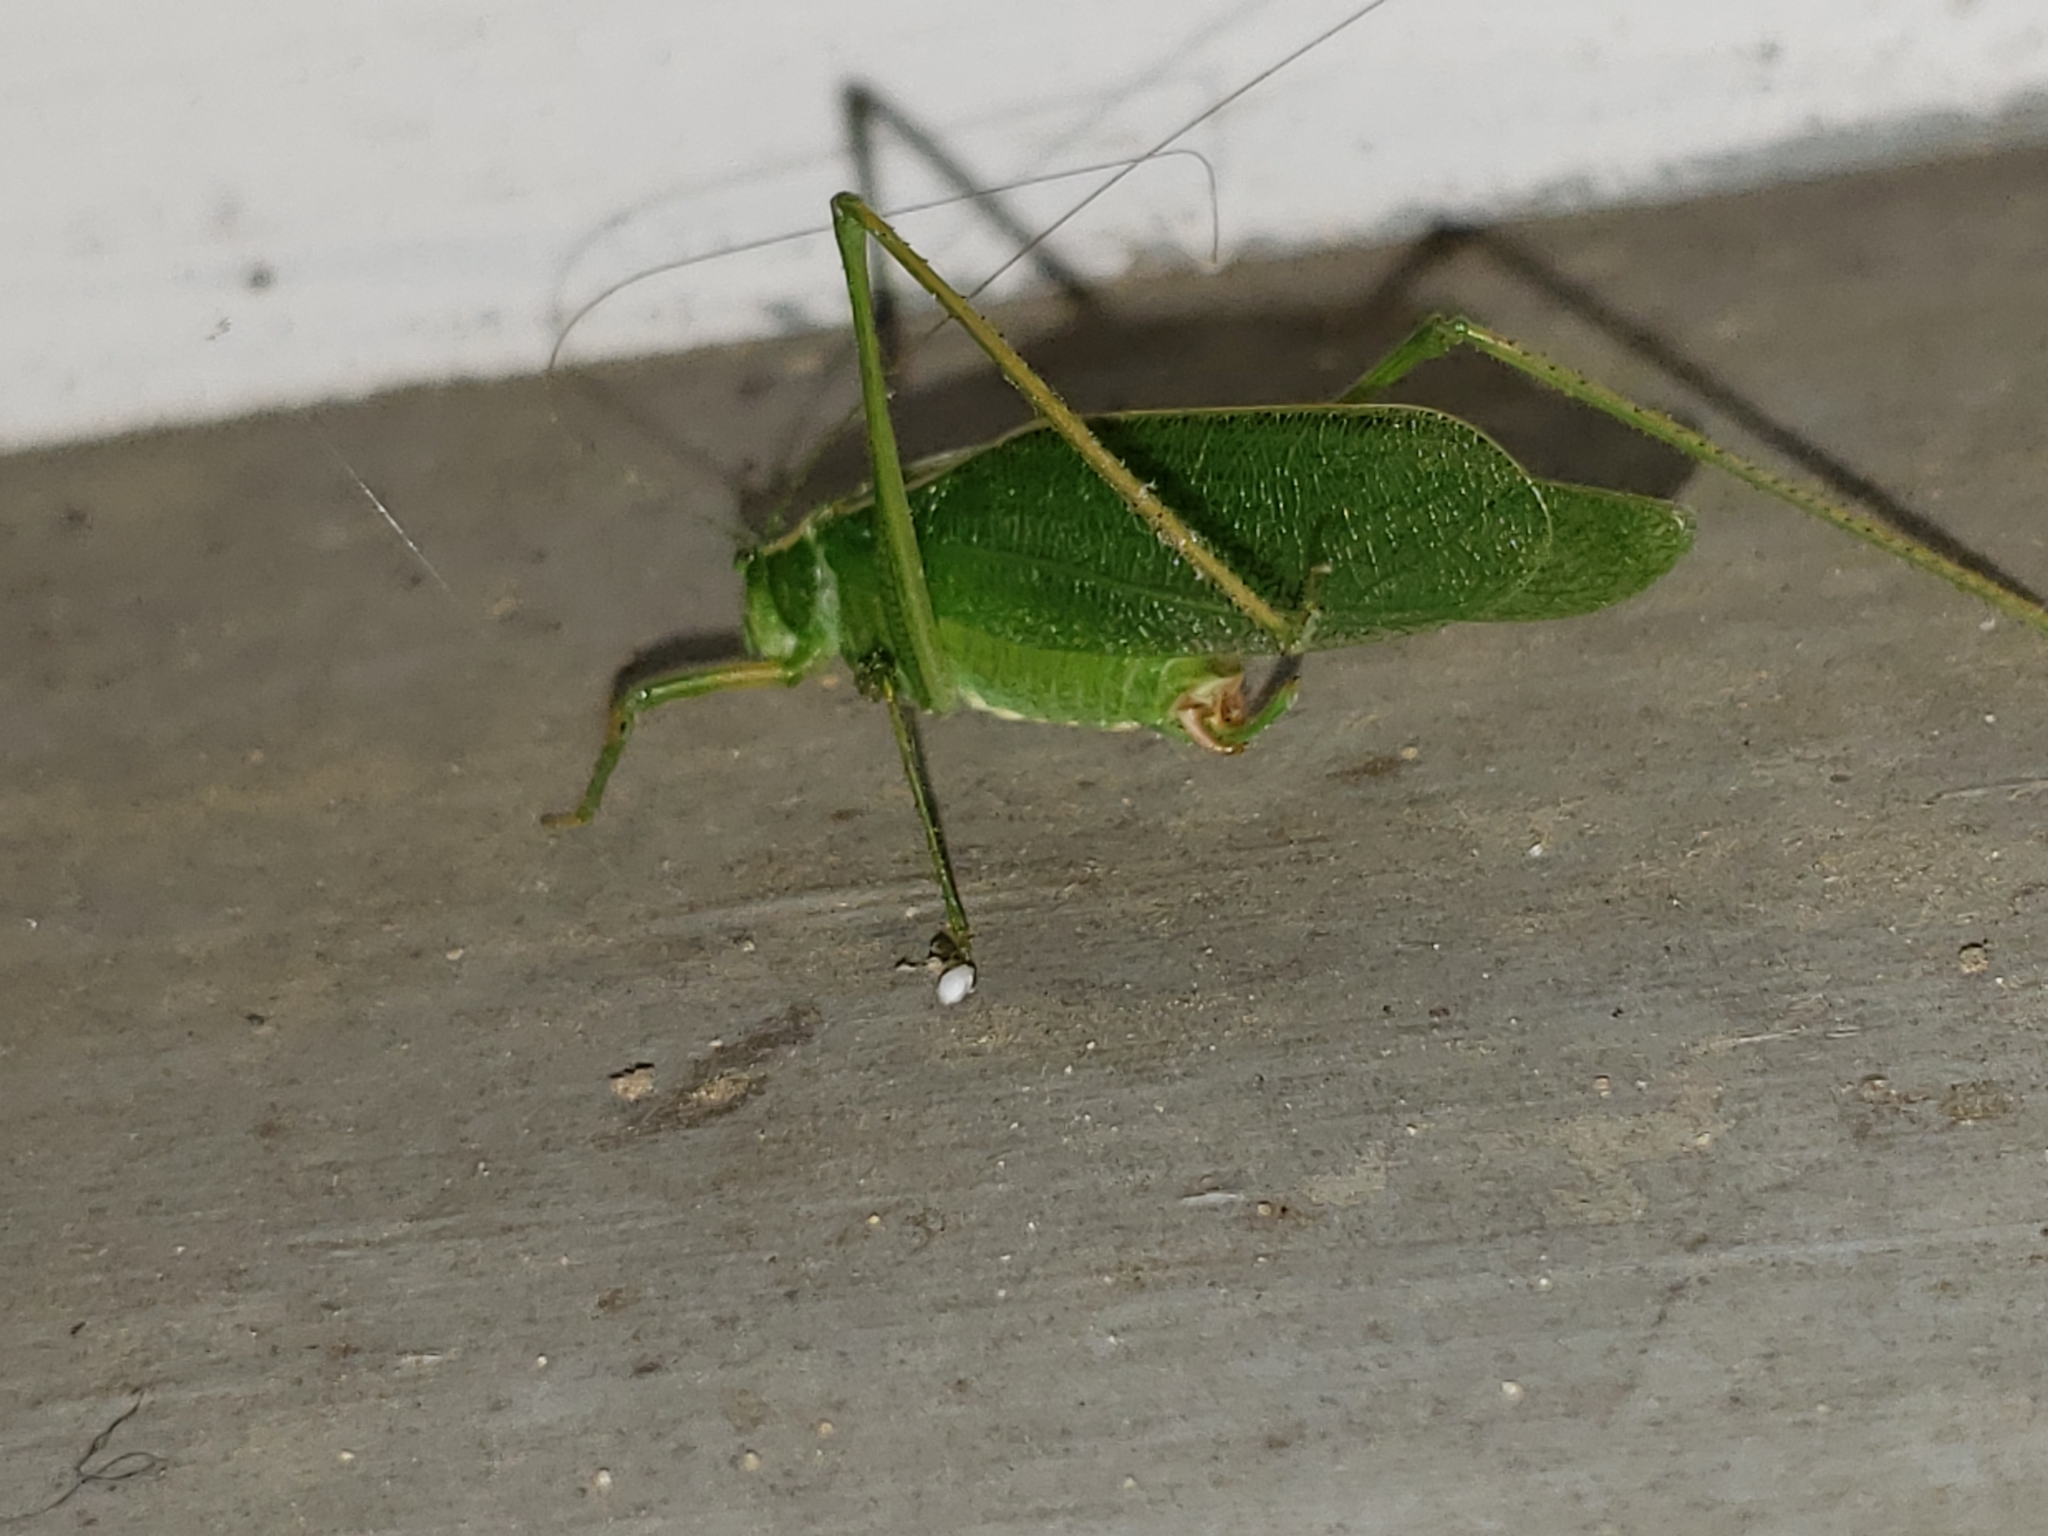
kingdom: Animalia
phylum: Arthropoda
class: Insecta
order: Orthoptera
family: Tettigoniidae
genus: Scudderia
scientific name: Scudderia septentrionalis
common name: Northern bush-katydid
